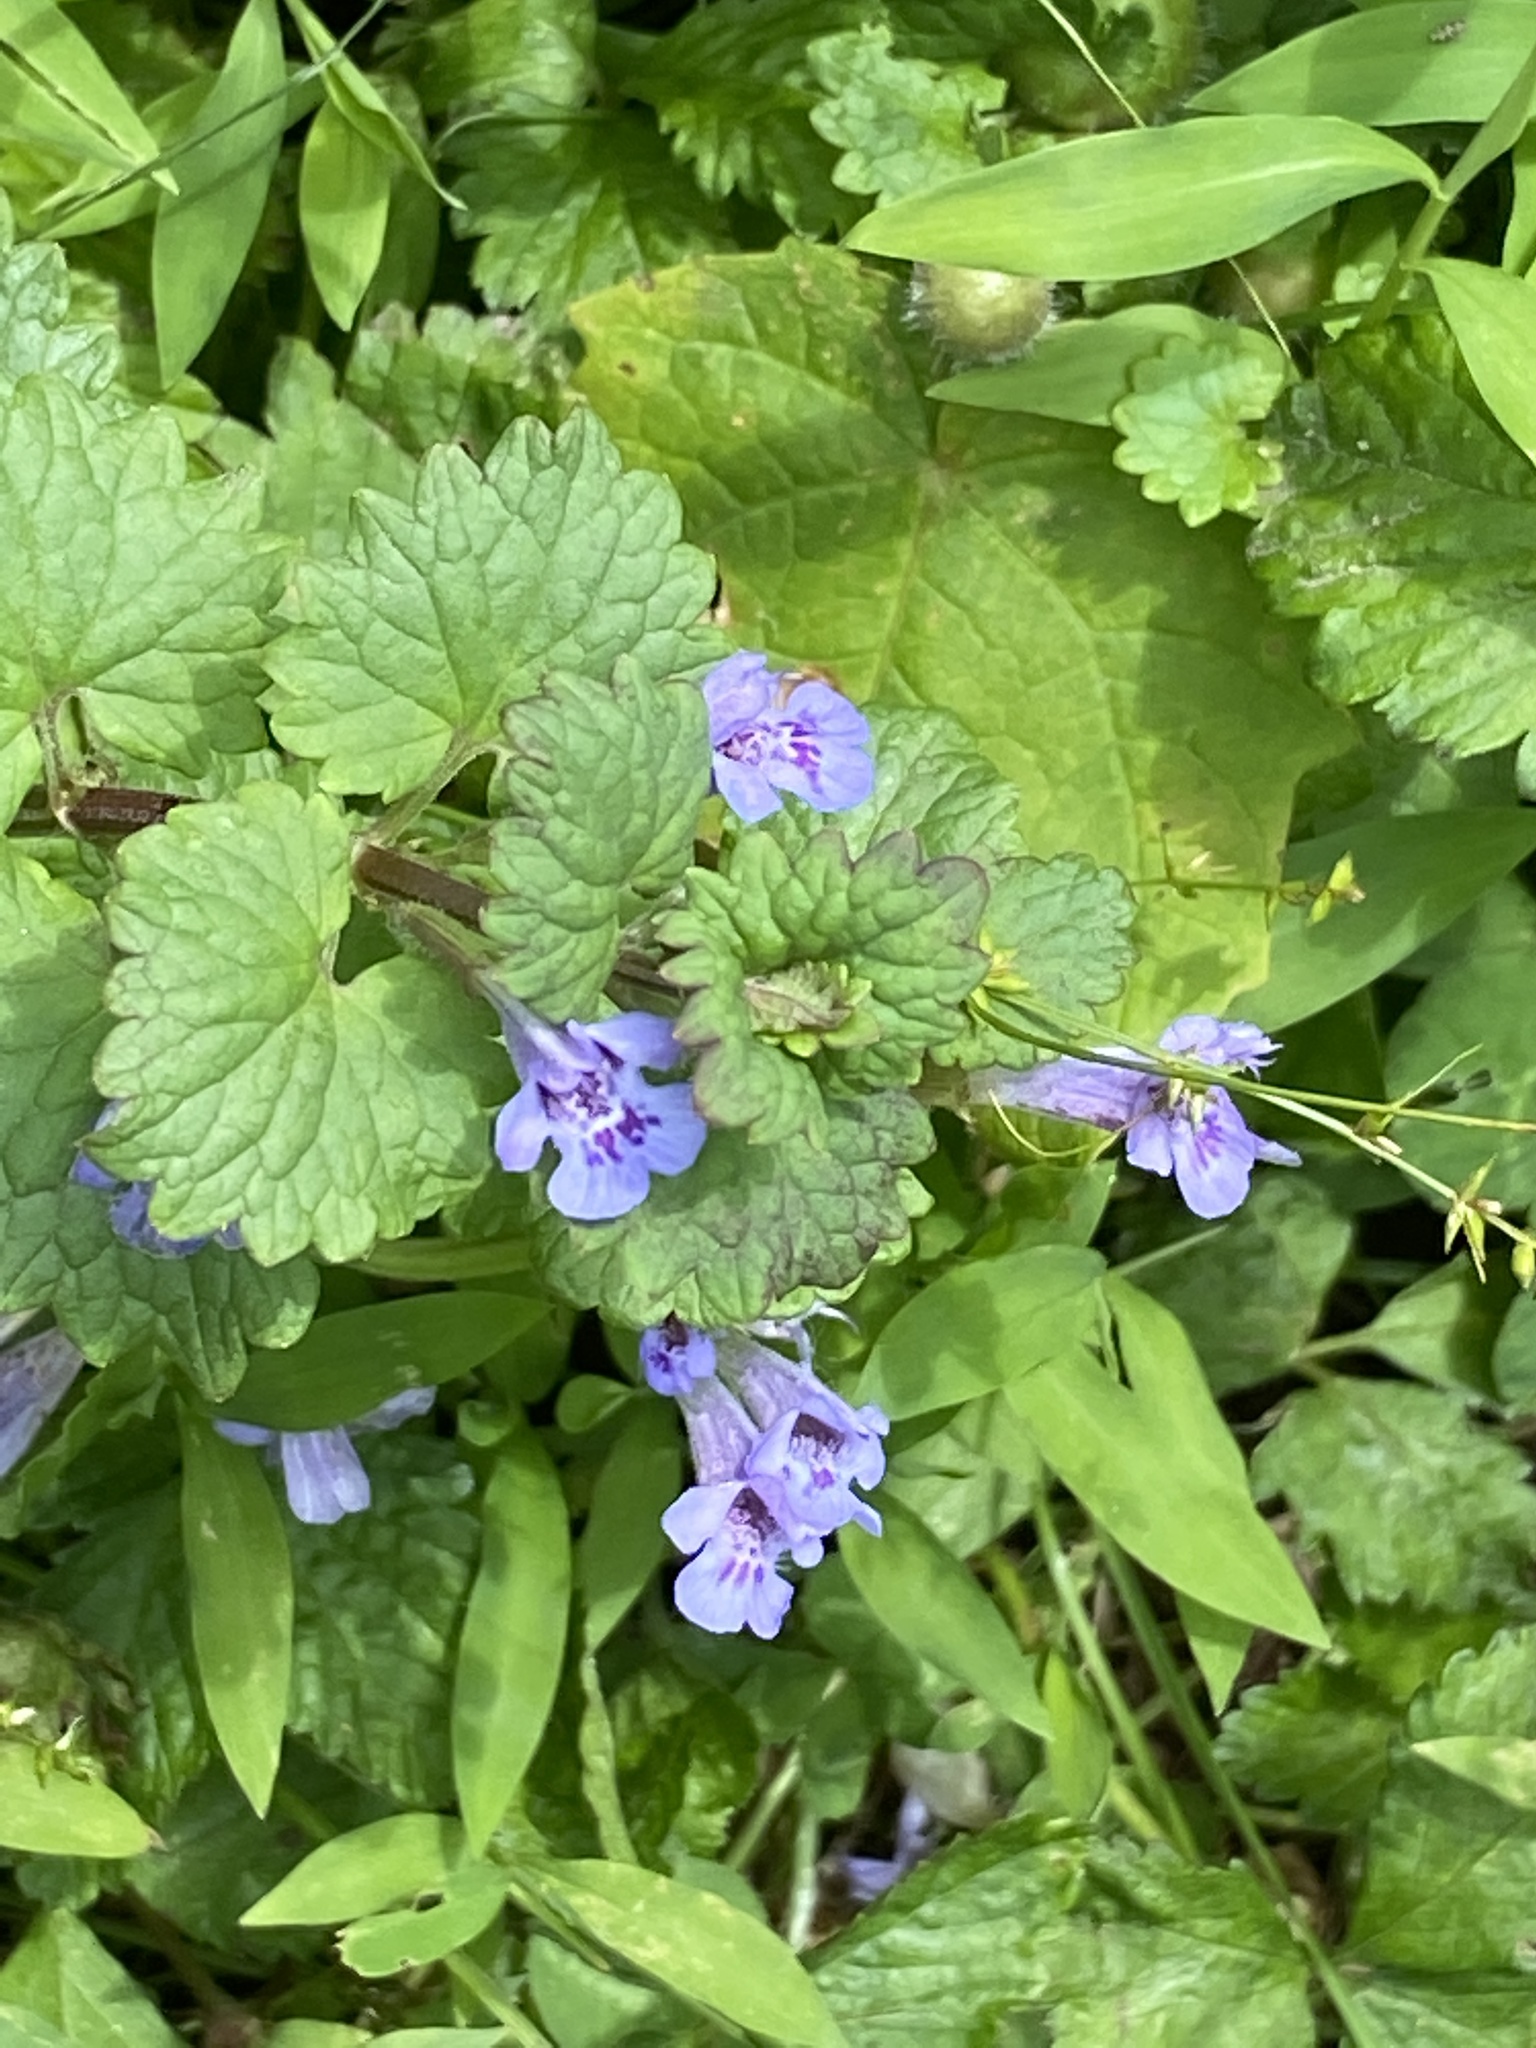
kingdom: Plantae
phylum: Tracheophyta
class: Magnoliopsida
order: Lamiales
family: Lamiaceae
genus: Glechoma
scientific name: Glechoma hederacea
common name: Ground ivy
